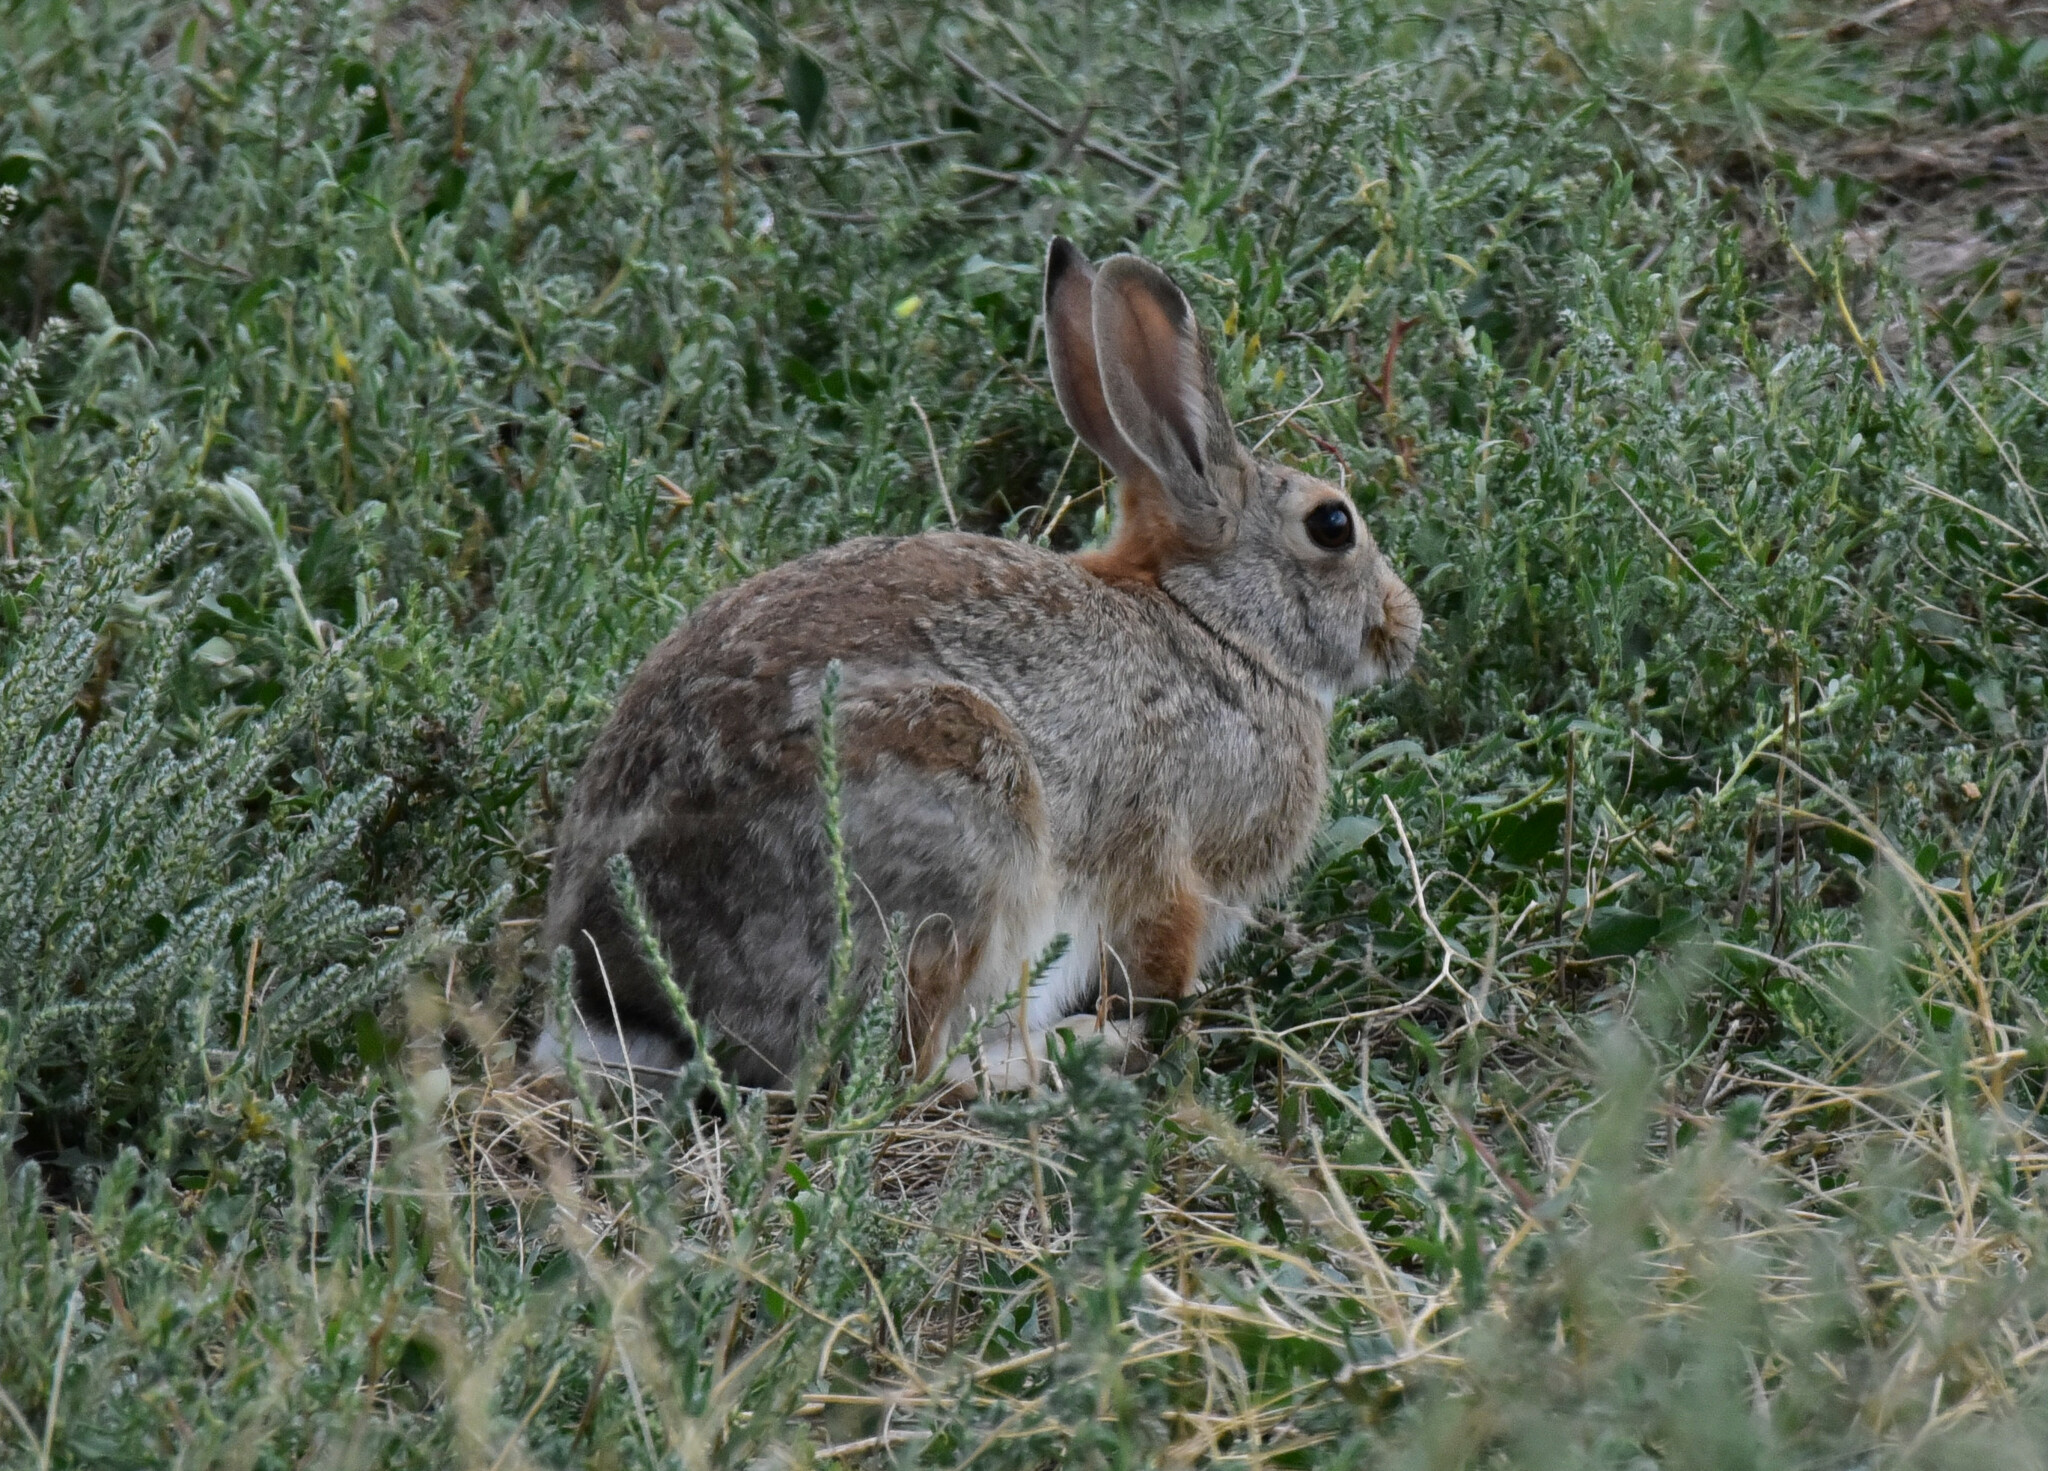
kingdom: Animalia
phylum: Chordata
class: Mammalia
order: Lagomorpha
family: Leporidae
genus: Sylvilagus
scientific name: Sylvilagus audubonii
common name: Desert cottontail
